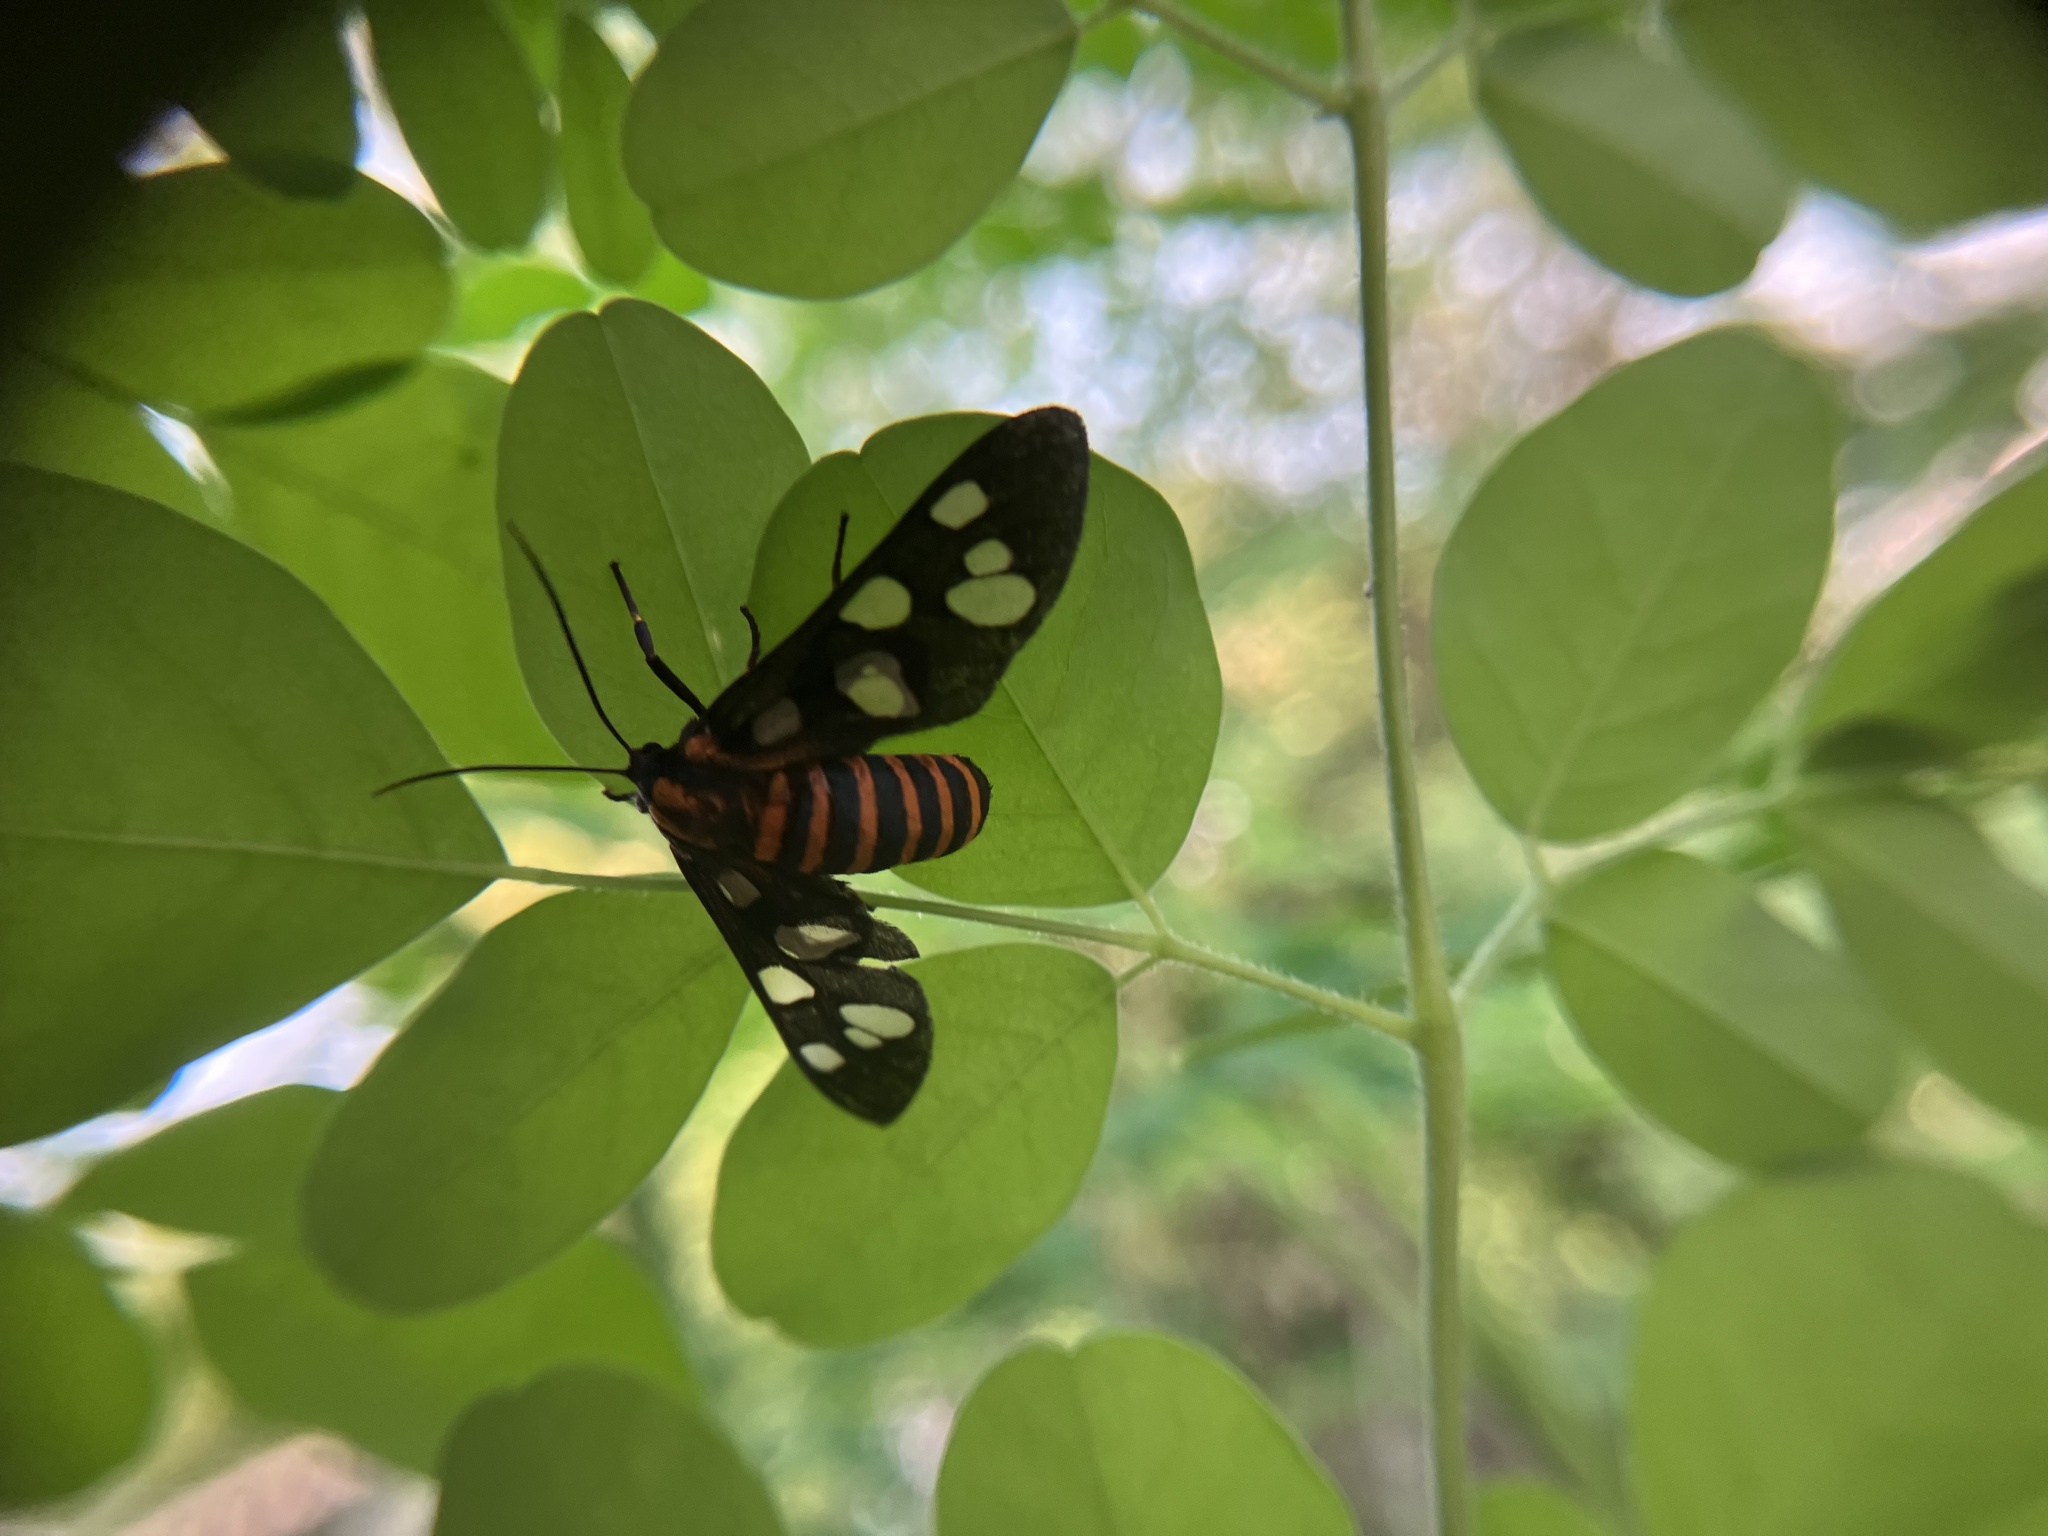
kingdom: Animalia
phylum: Arthropoda
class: Insecta
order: Lepidoptera
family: Erebidae
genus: Amata
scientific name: Amata passalis
